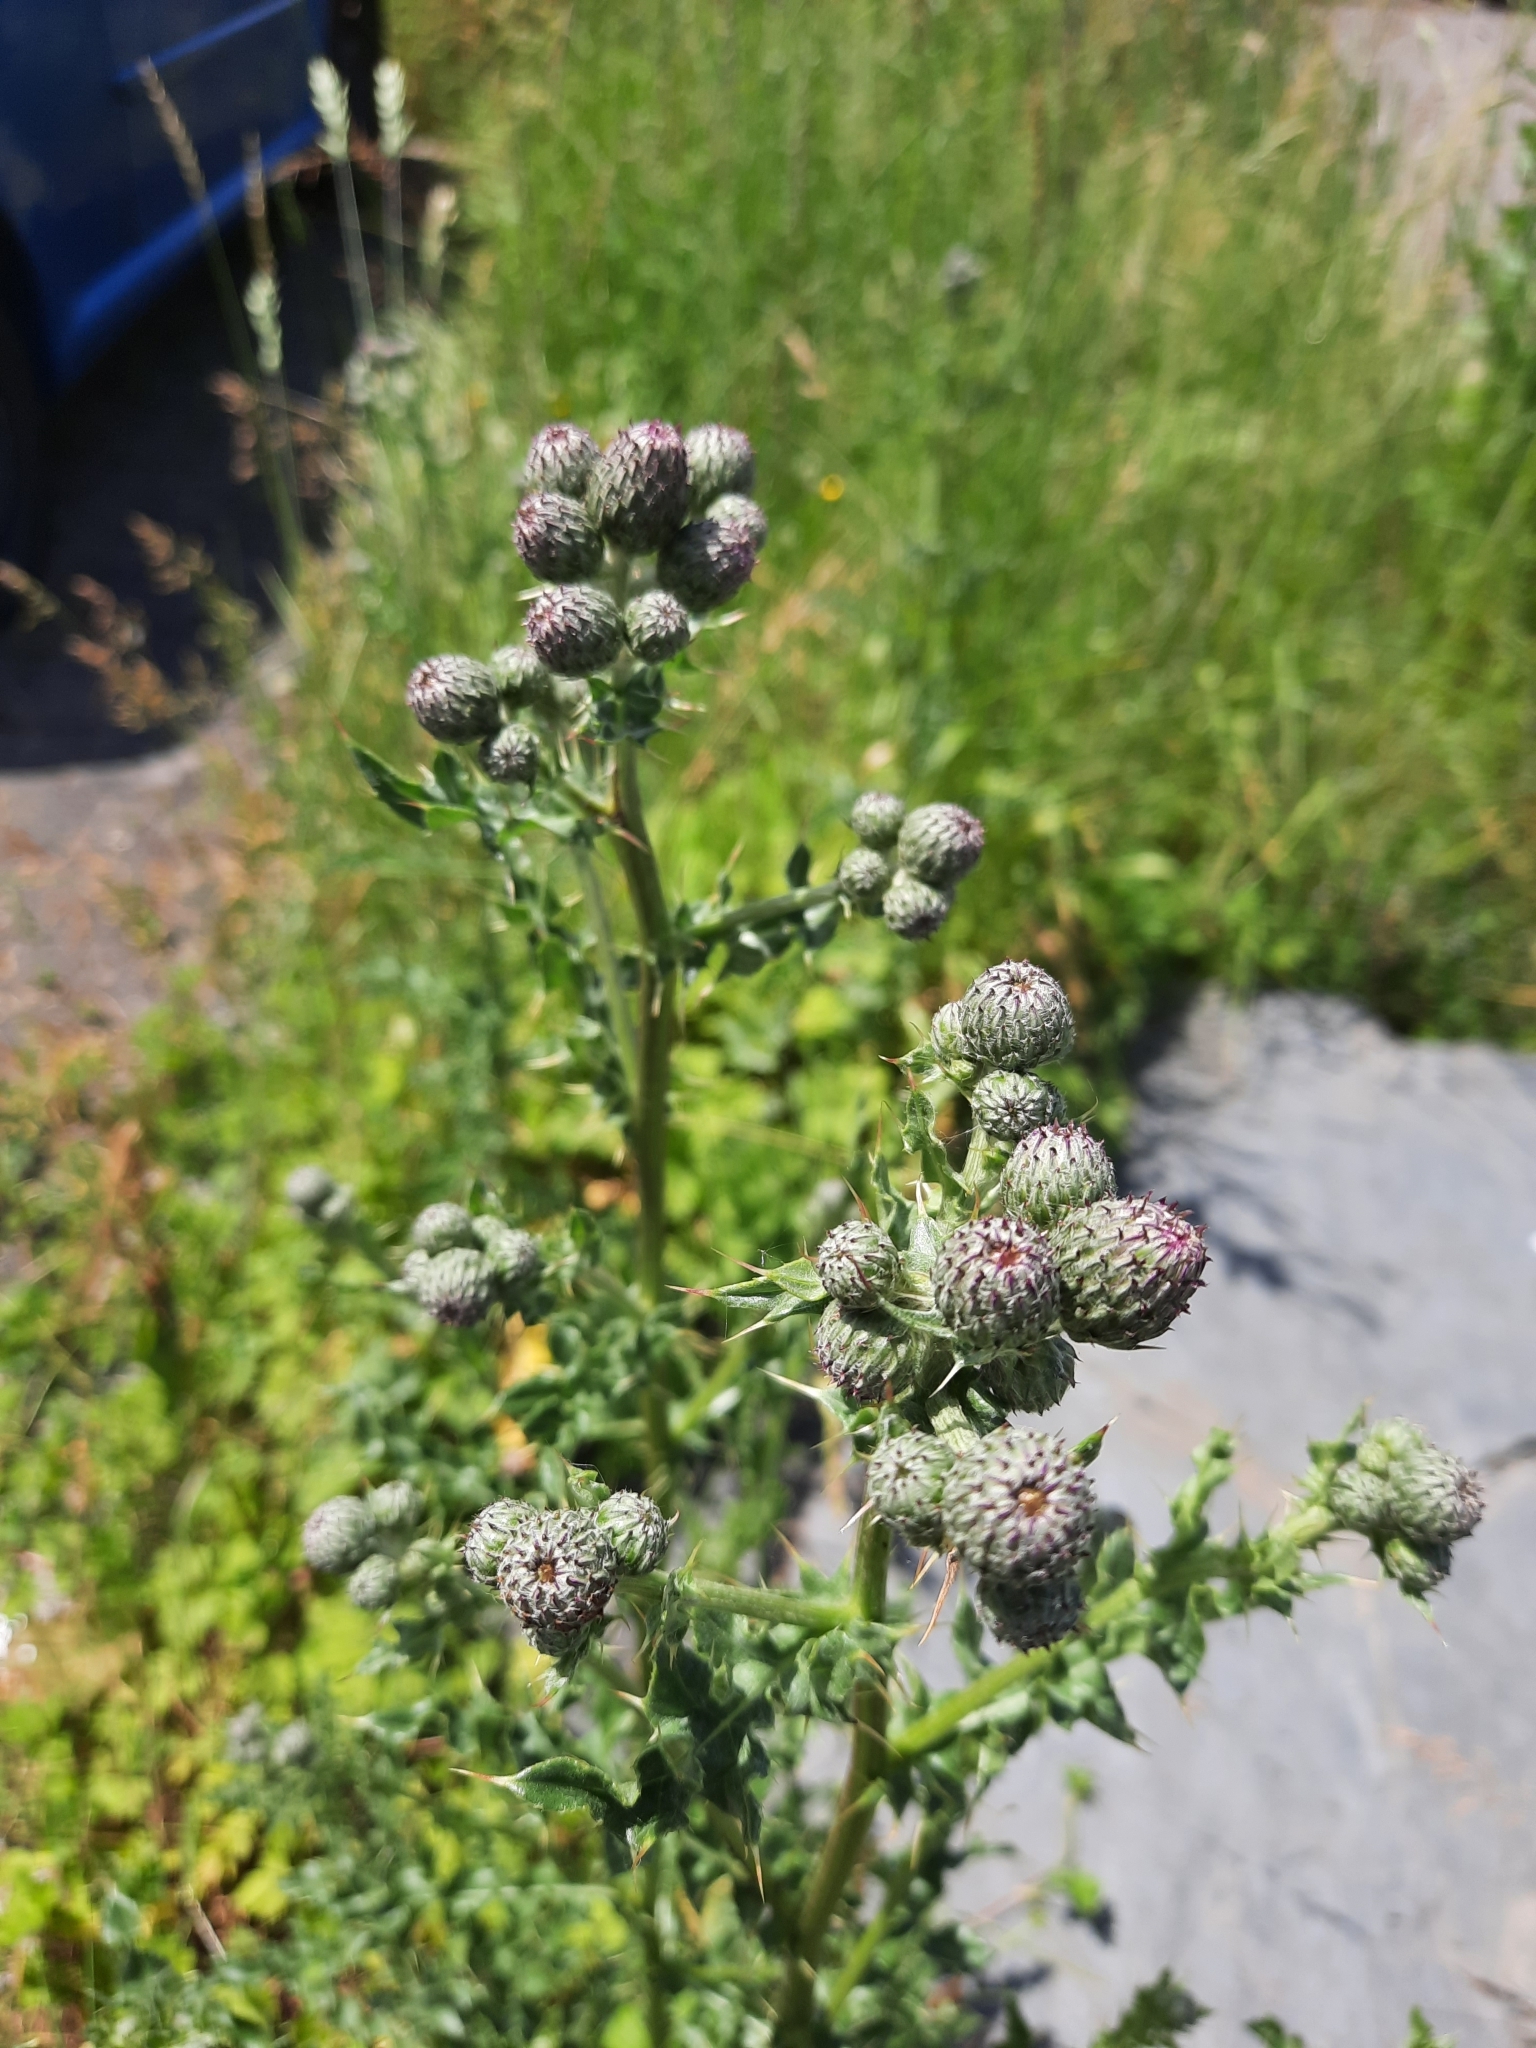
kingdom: Plantae
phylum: Tracheophyta
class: Magnoliopsida
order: Asterales
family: Asteraceae
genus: Cirsium
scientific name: Cirsium arvense
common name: Creeping thistle
